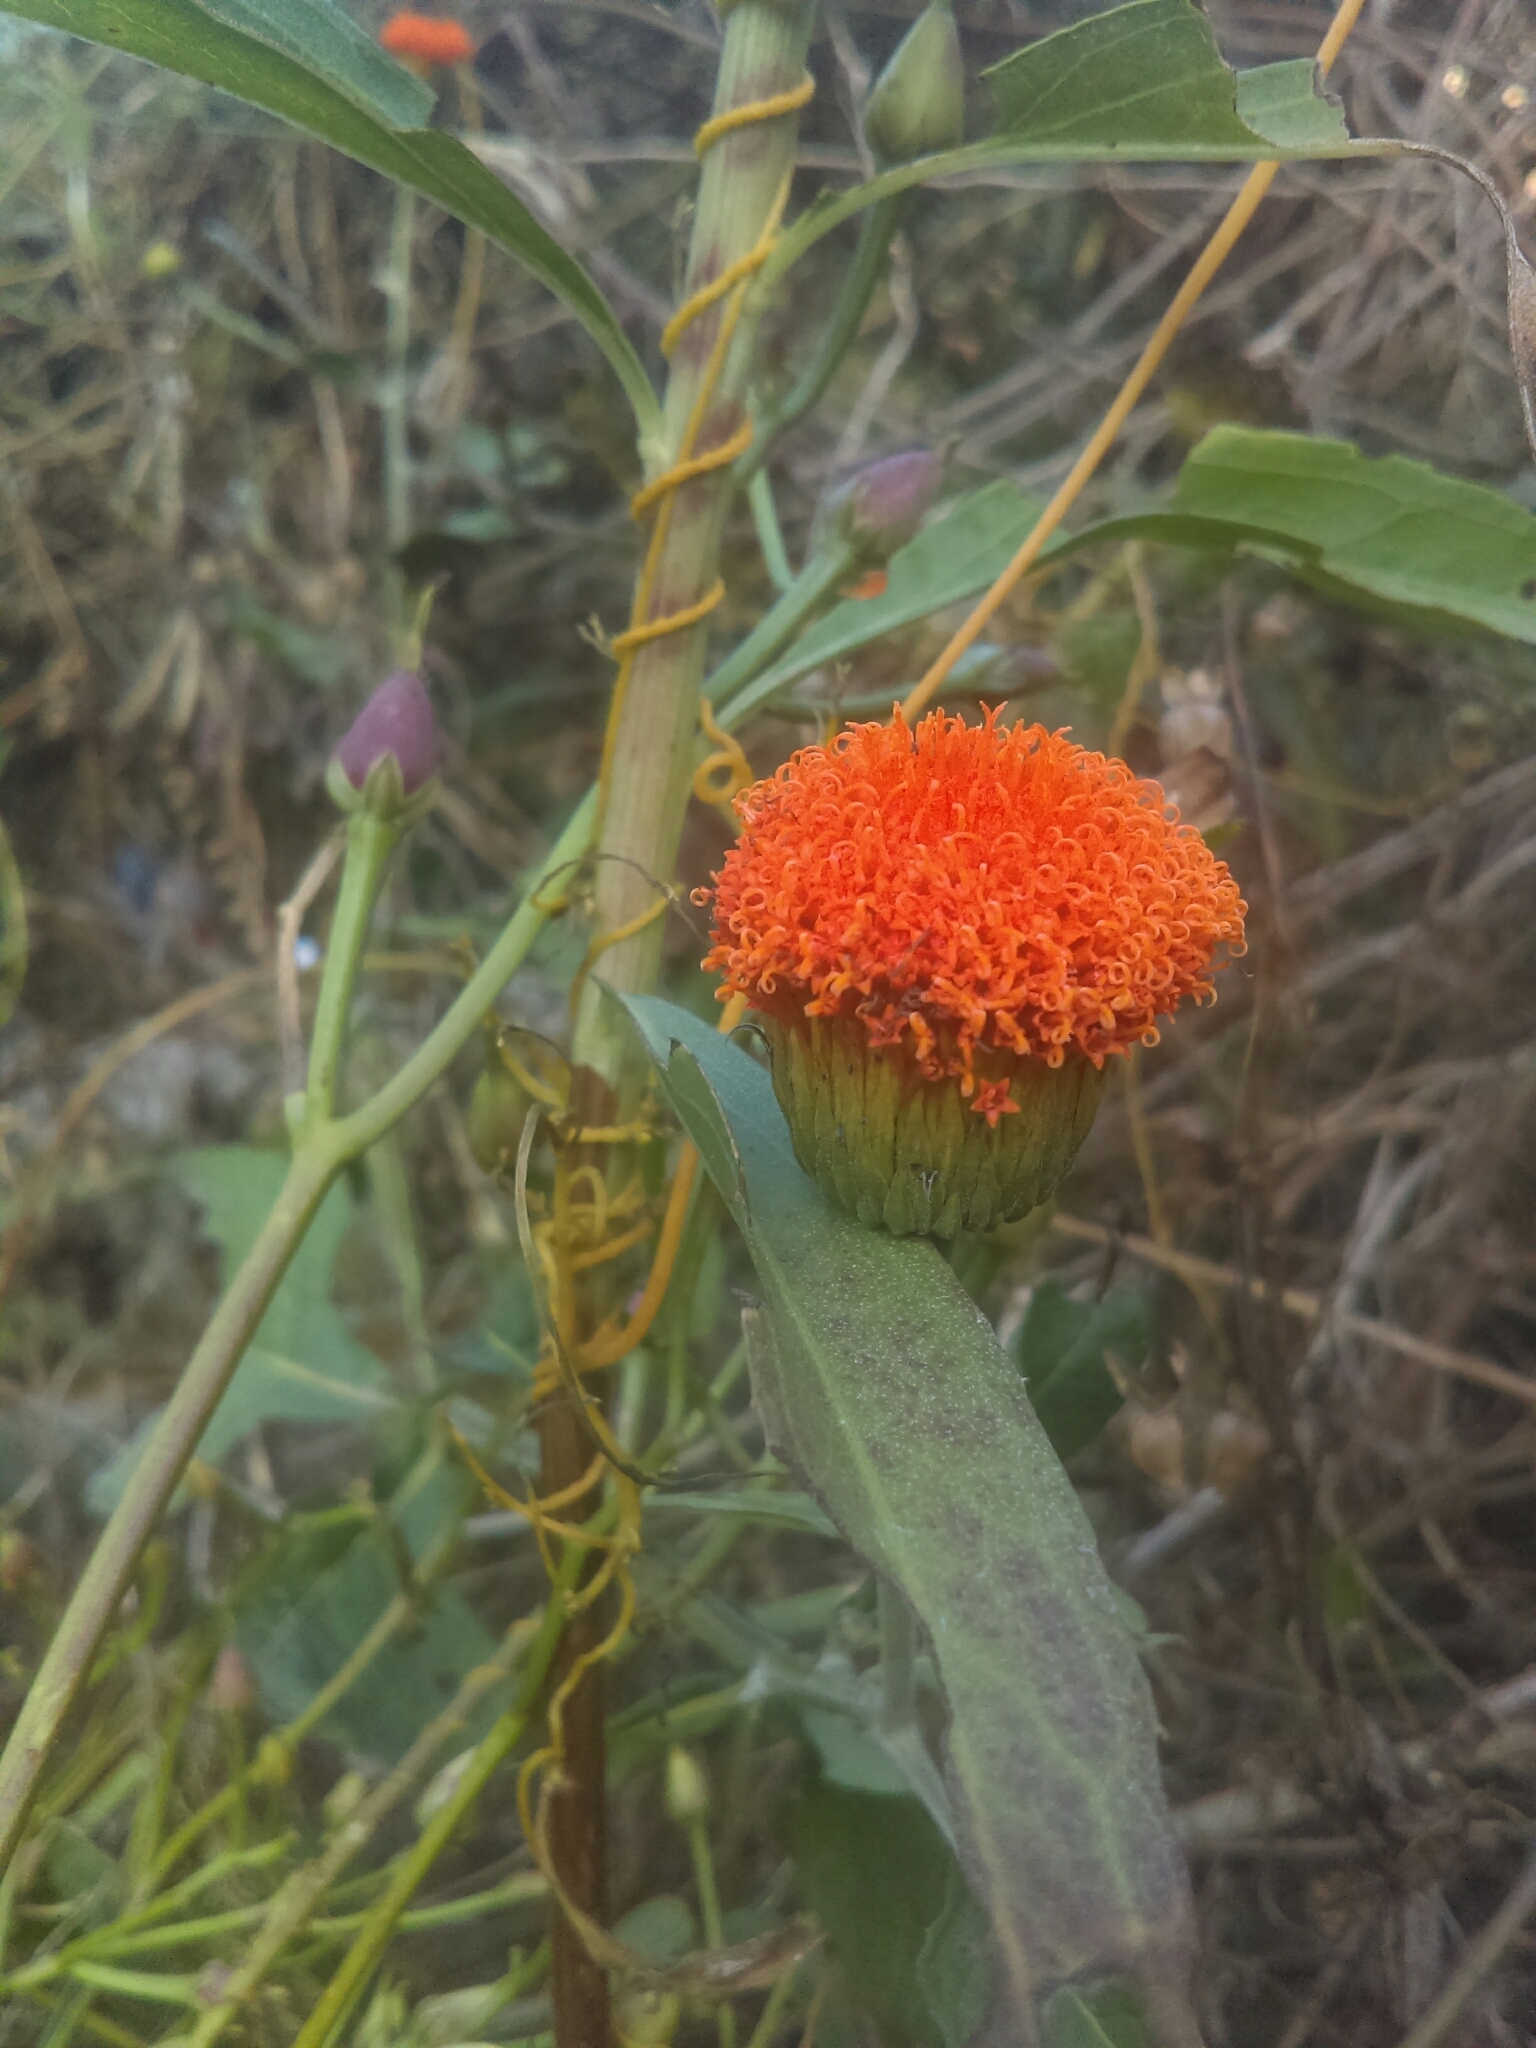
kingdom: Plantae
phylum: Tracheophyta
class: Magnoliopsida
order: Asterales
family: Asteraceae
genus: Verbesina
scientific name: Verbesina crocata
